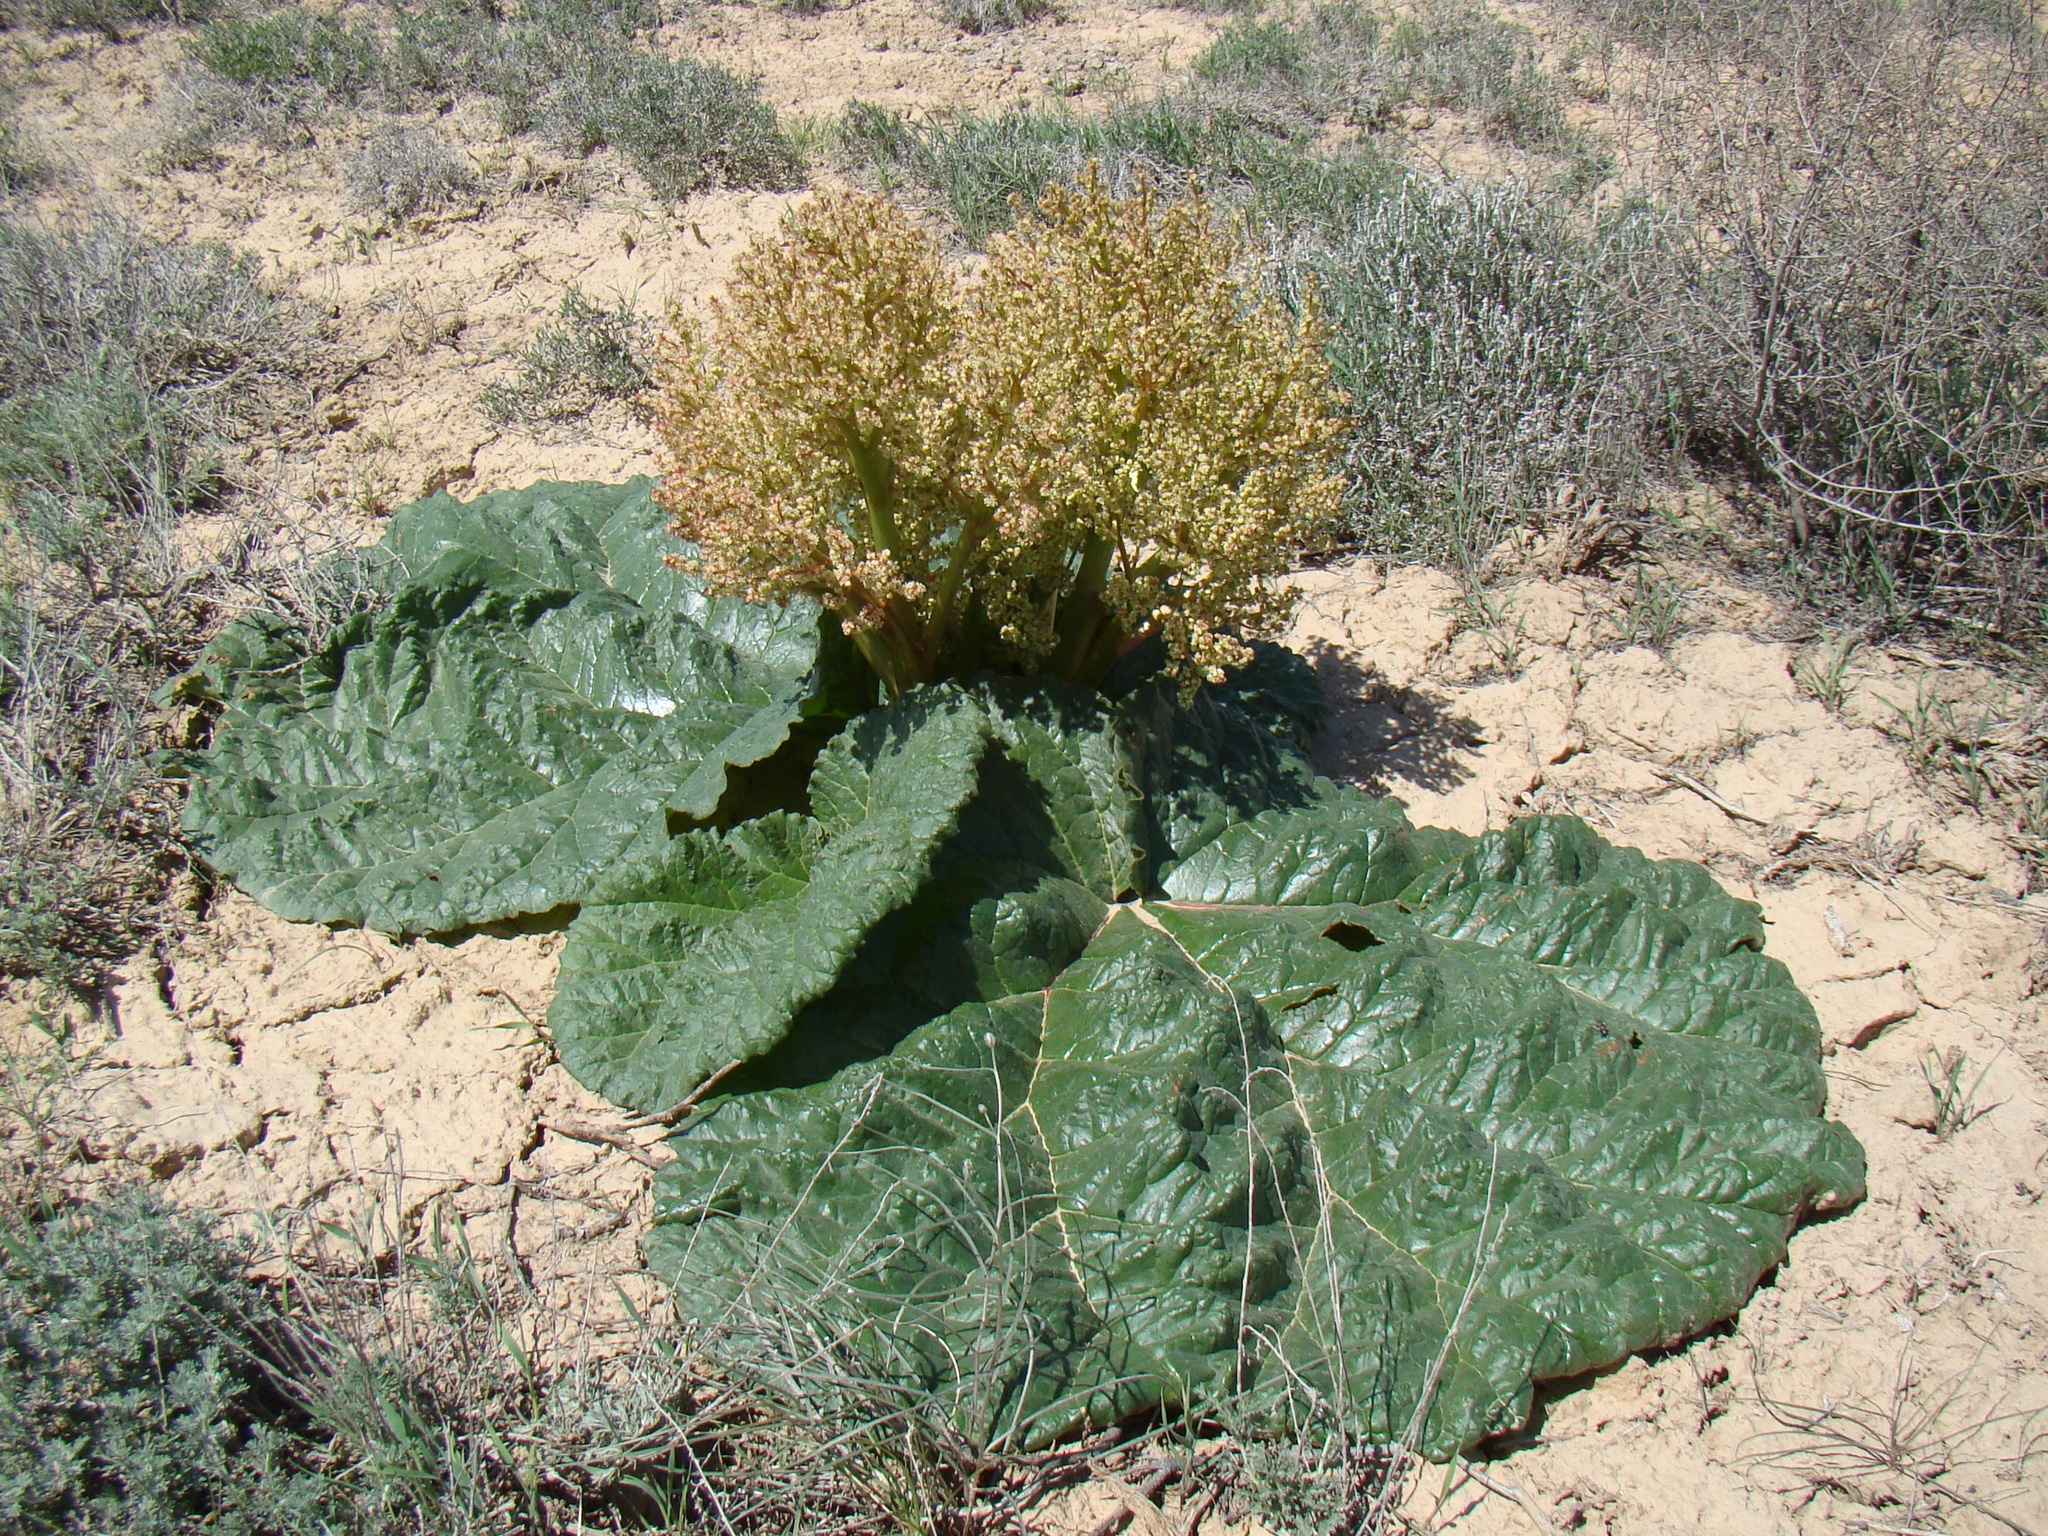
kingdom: Plantae
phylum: Tracheophyta
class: Magnoliopsida
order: Caryophyllales
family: Polygonaceae
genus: Rheum
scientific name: Rheum turkestanicum
